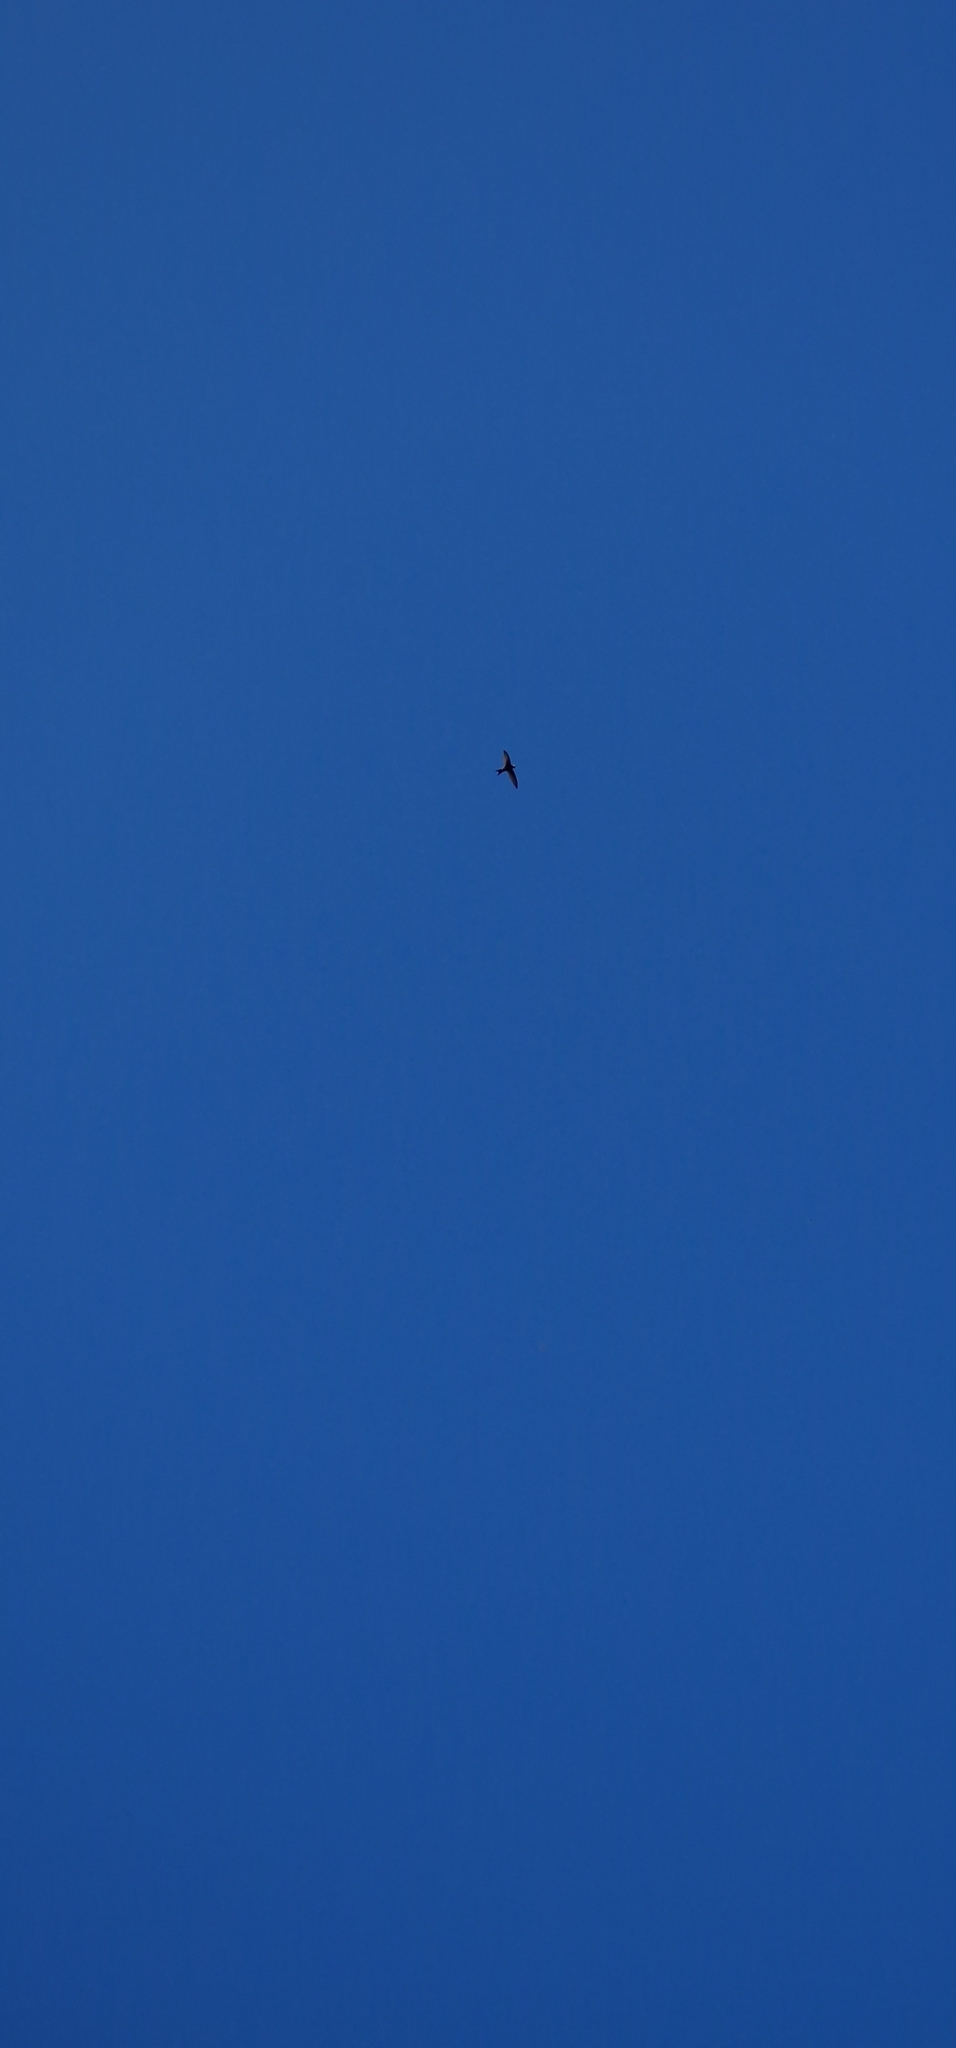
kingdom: Animalia
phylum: Chordata
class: Aves
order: Apodiformes
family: Apodidae
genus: Apus
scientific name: Apus apus
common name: Common swift
